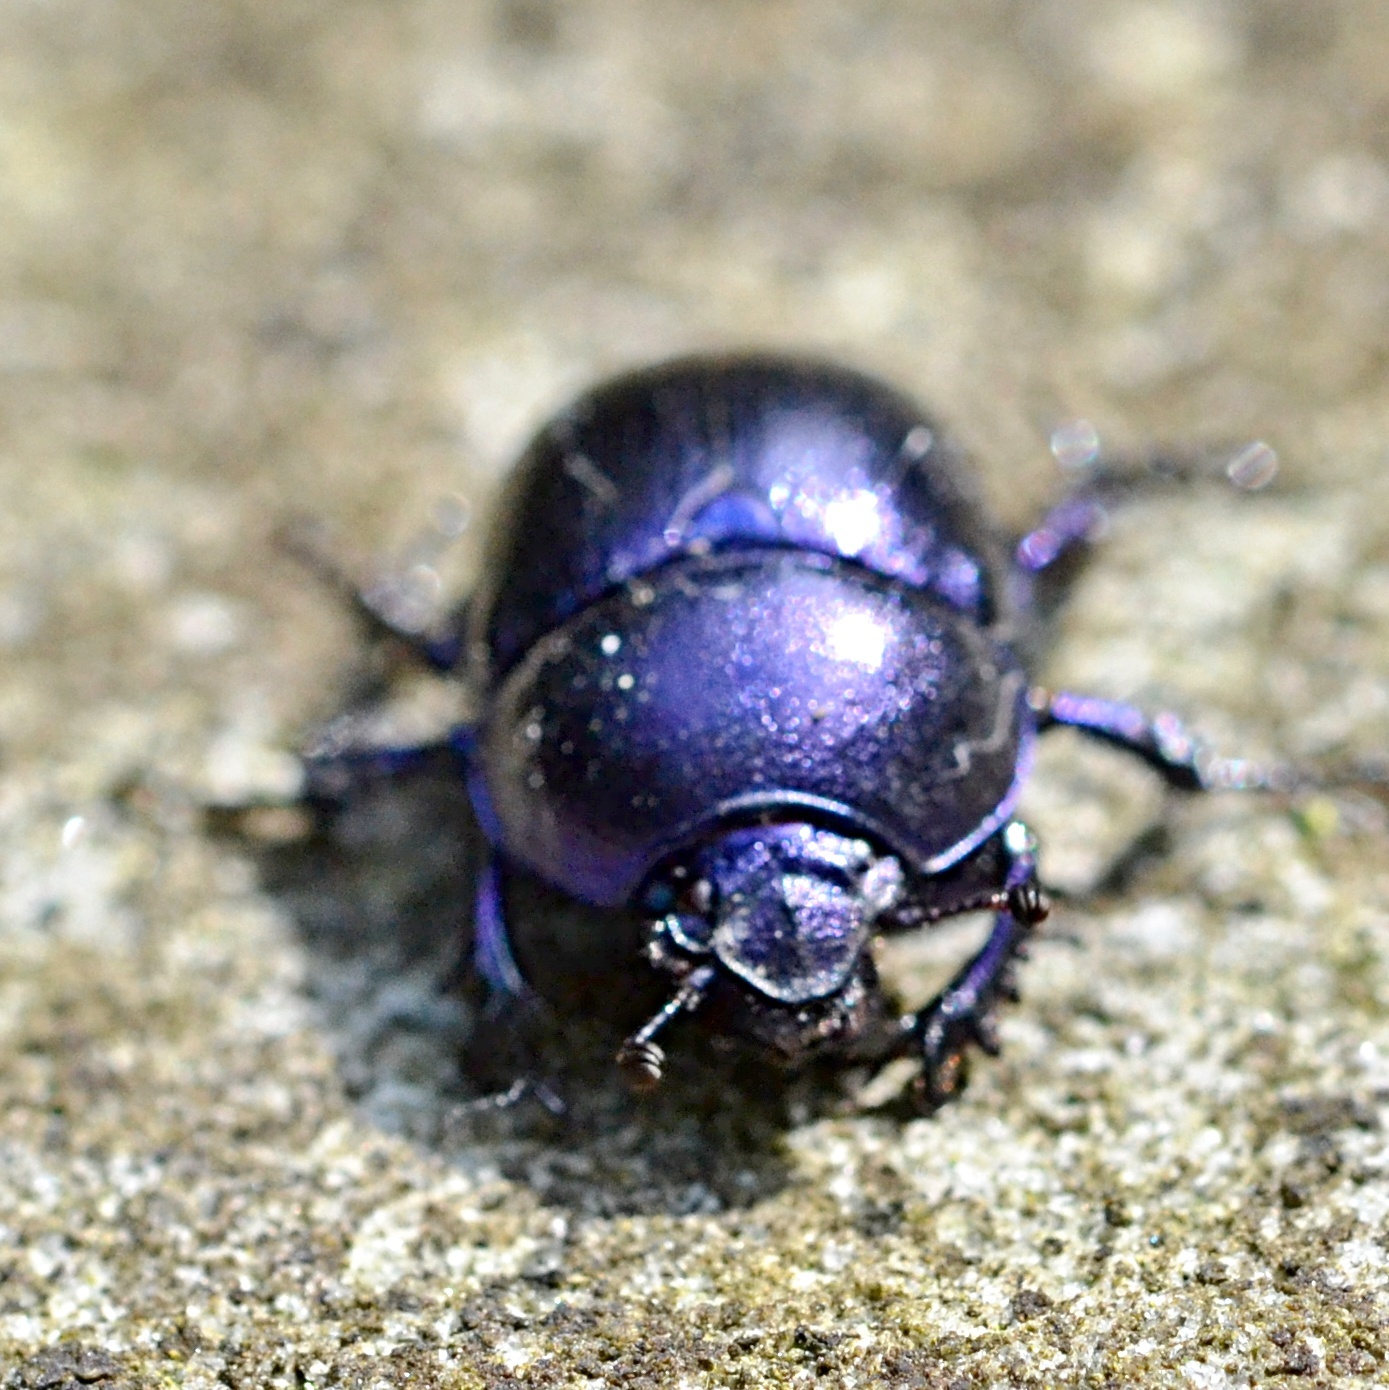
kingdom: Animalia
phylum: Arthropoda
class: Insecta
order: Coleoptera
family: Geotrupidae
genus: Anoplotrupes
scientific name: Anoplotrupes stercorosus
